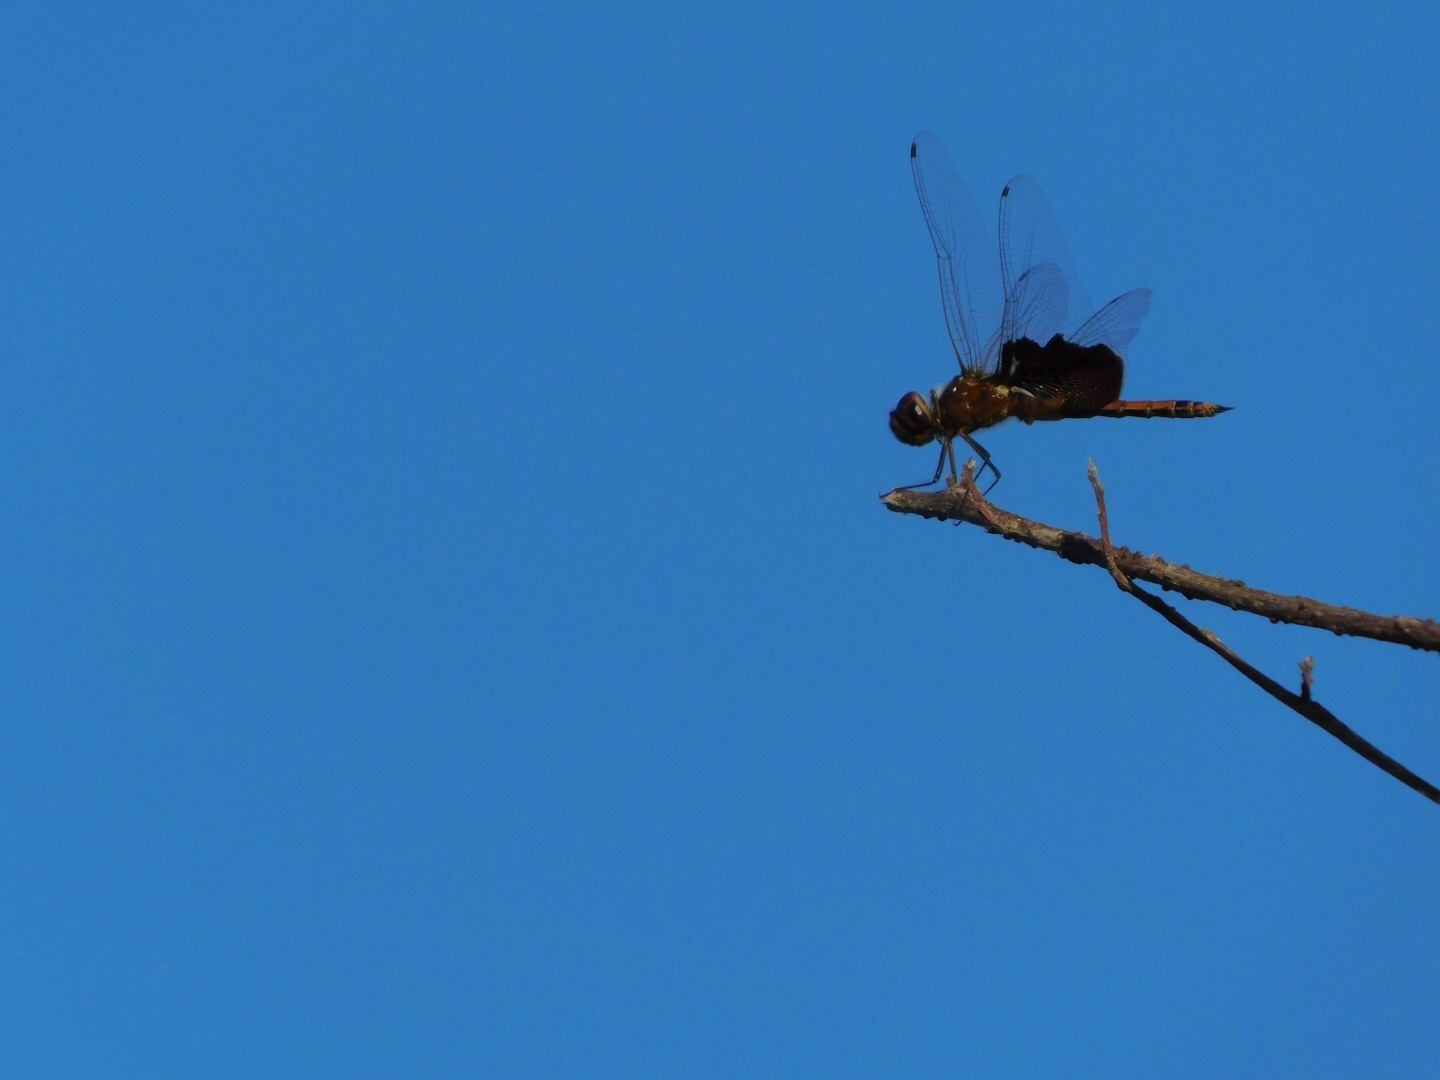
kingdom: Animalia
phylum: Arthropoda
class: Insecta
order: Odonata
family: Libellulidae
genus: Tramea
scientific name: Tramea carolina
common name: Carolina saddlebags
